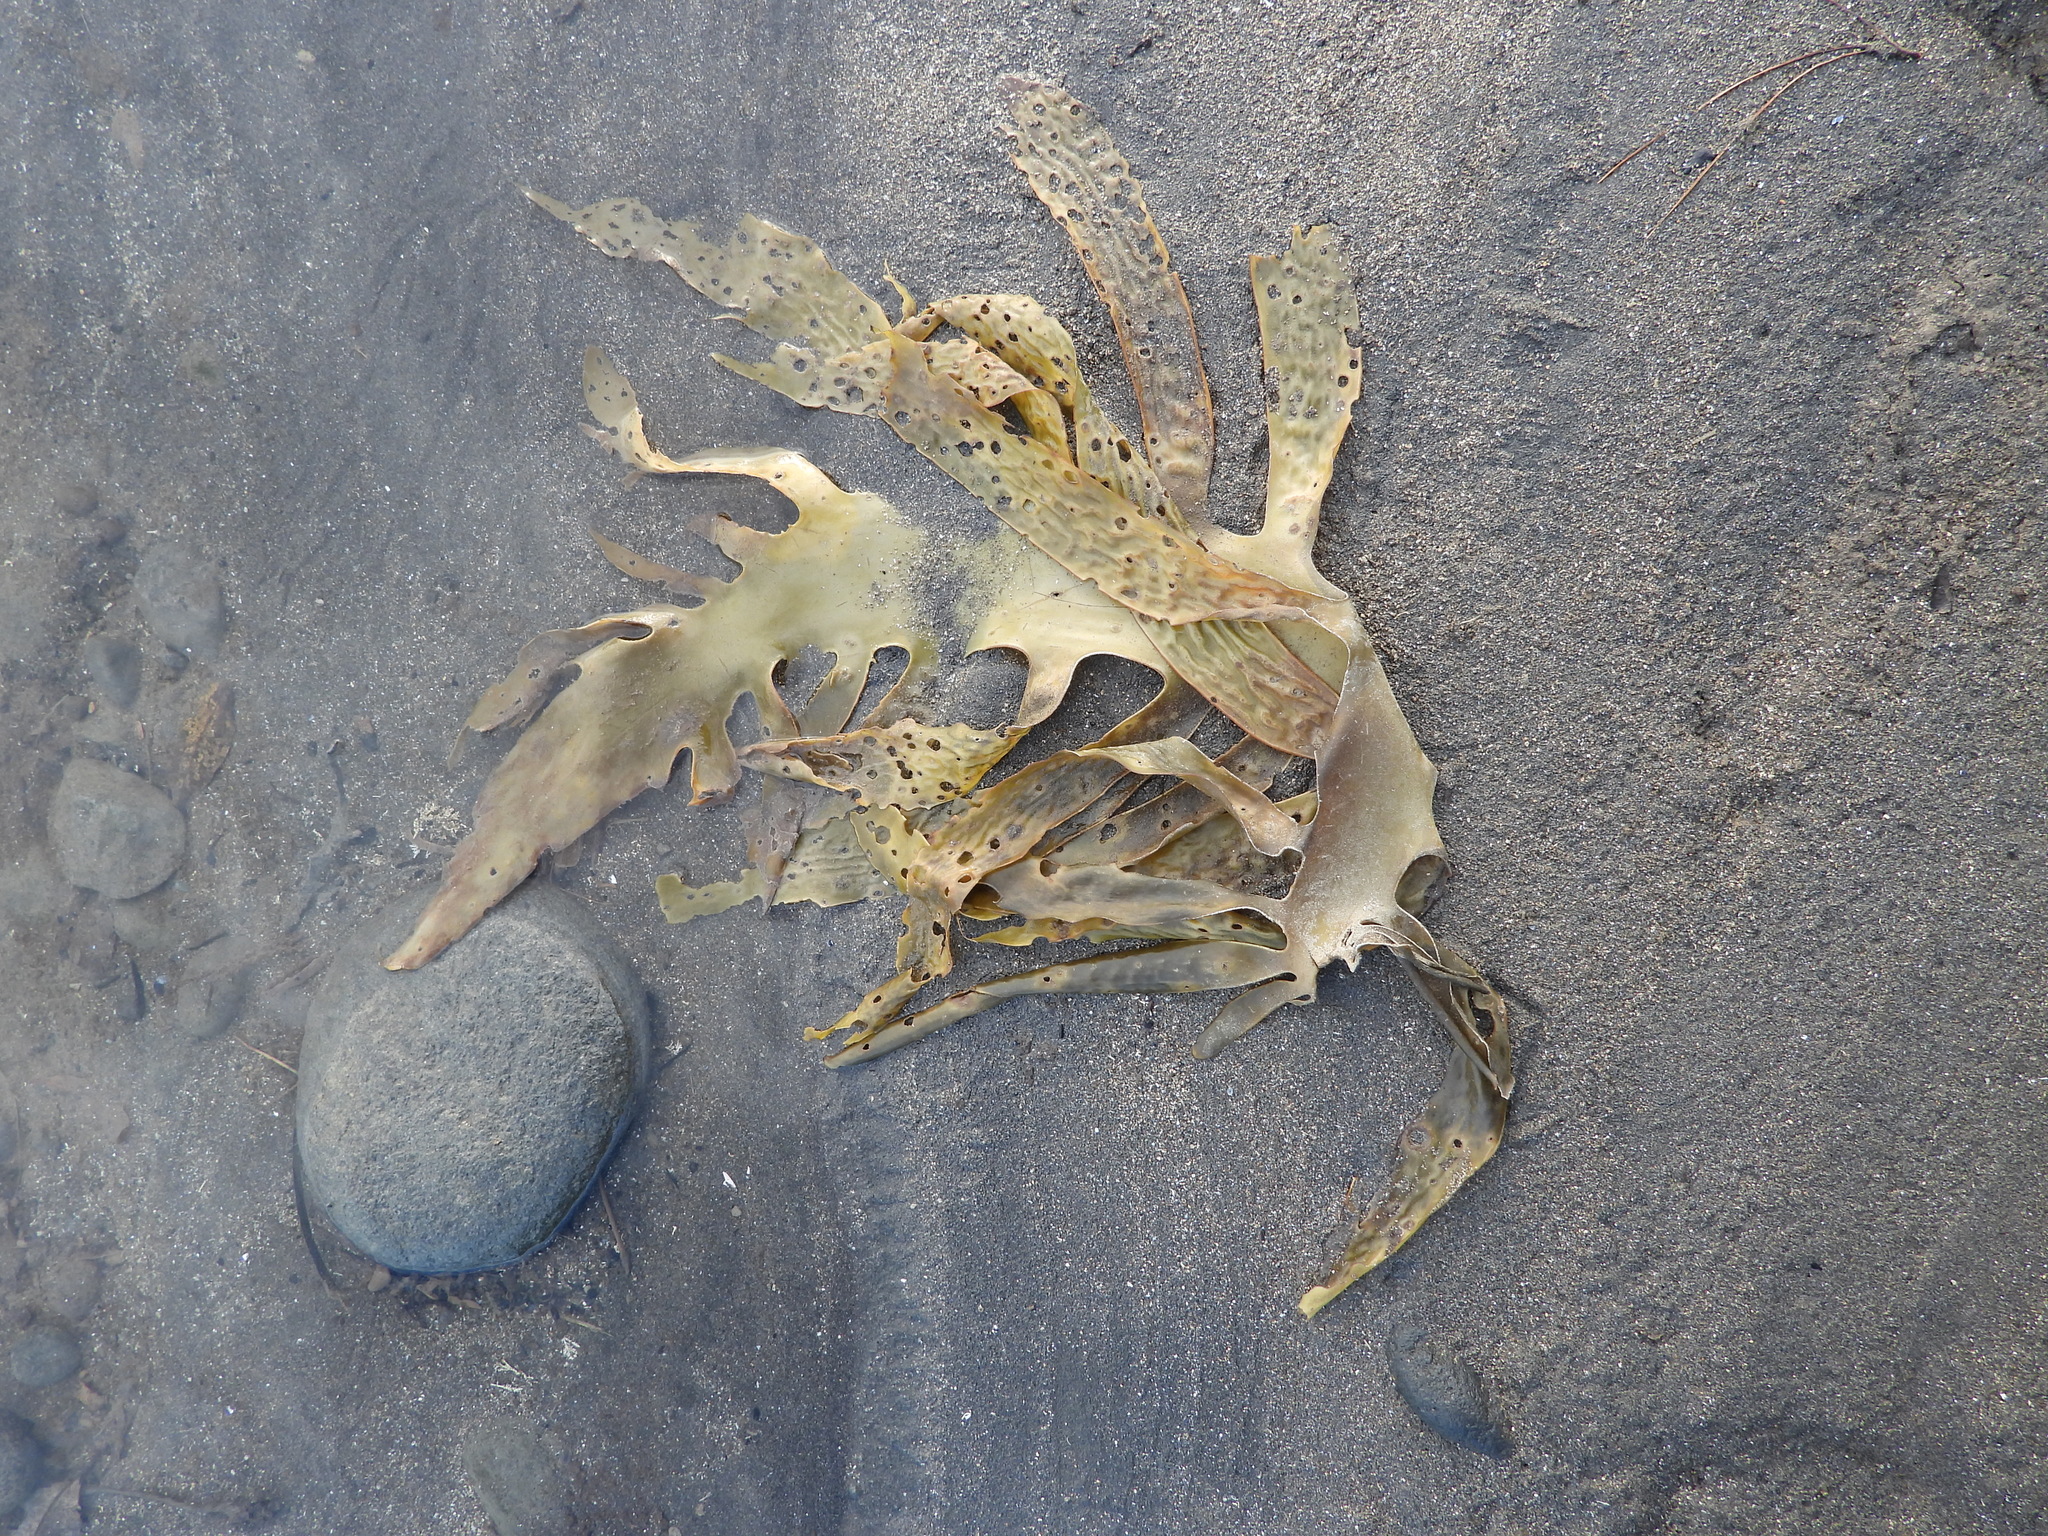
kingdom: Chromista
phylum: Ochrophyta
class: Phaeophyceae
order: Laminariales
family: Lessoniaceae
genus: Ecklonia
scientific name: Ecklonia radiata
